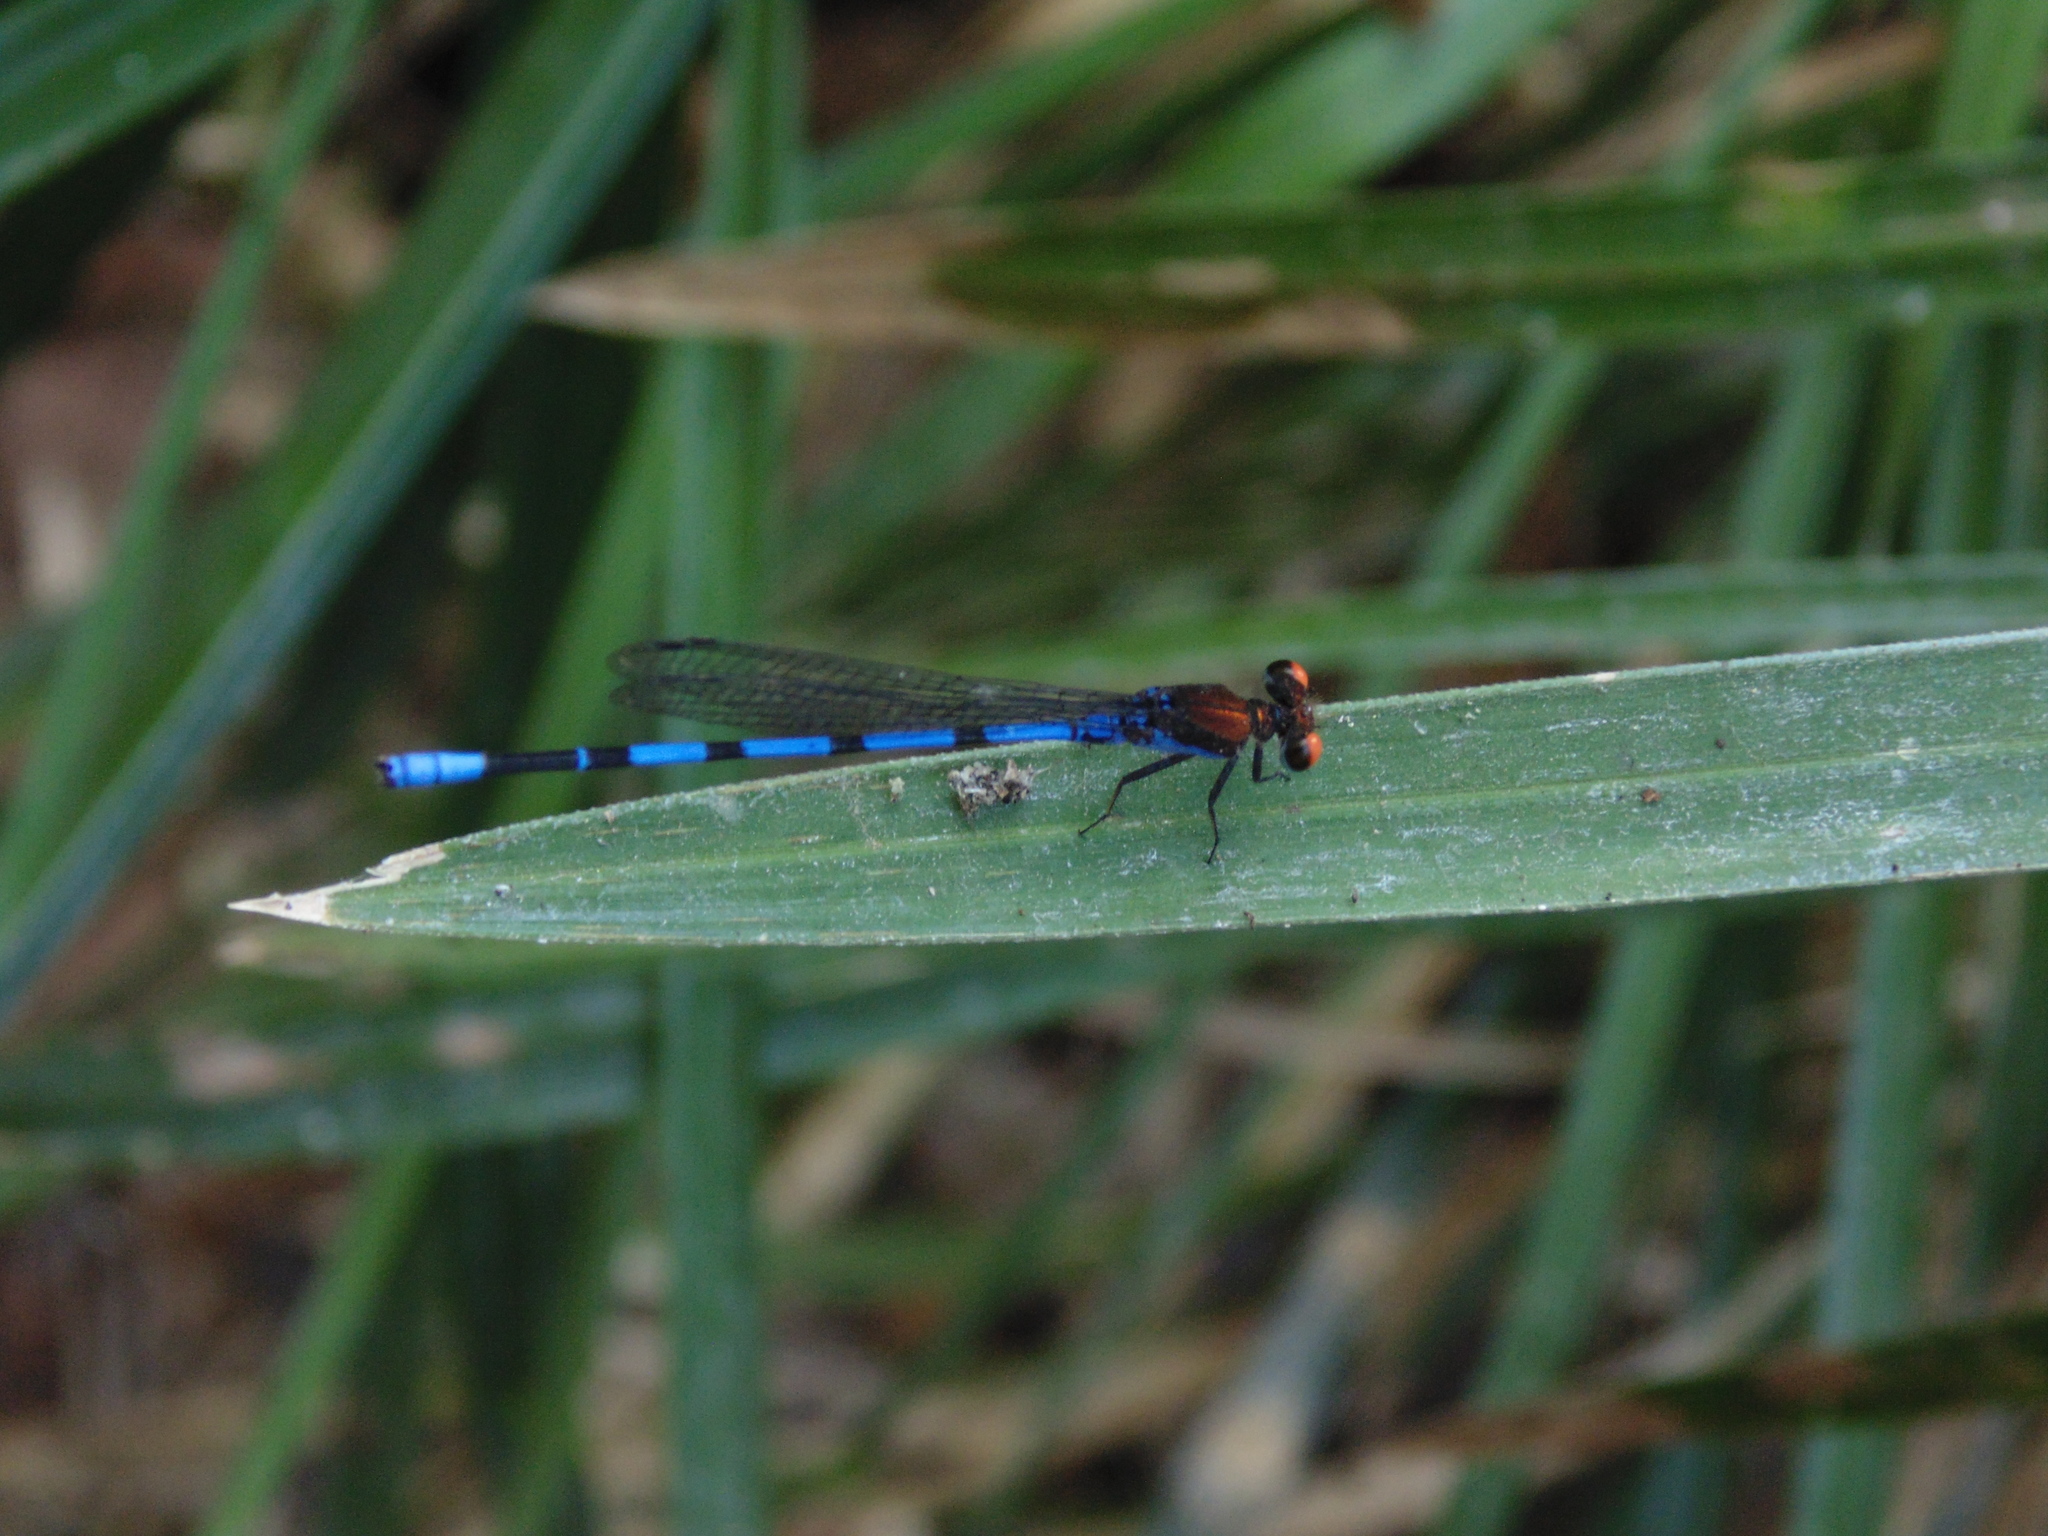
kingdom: Animalia
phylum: Arthropoda
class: Insecta
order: Odonata
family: Coenagrionidae
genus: Argia
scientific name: Argia oenea
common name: Fiery-eyed dancer
